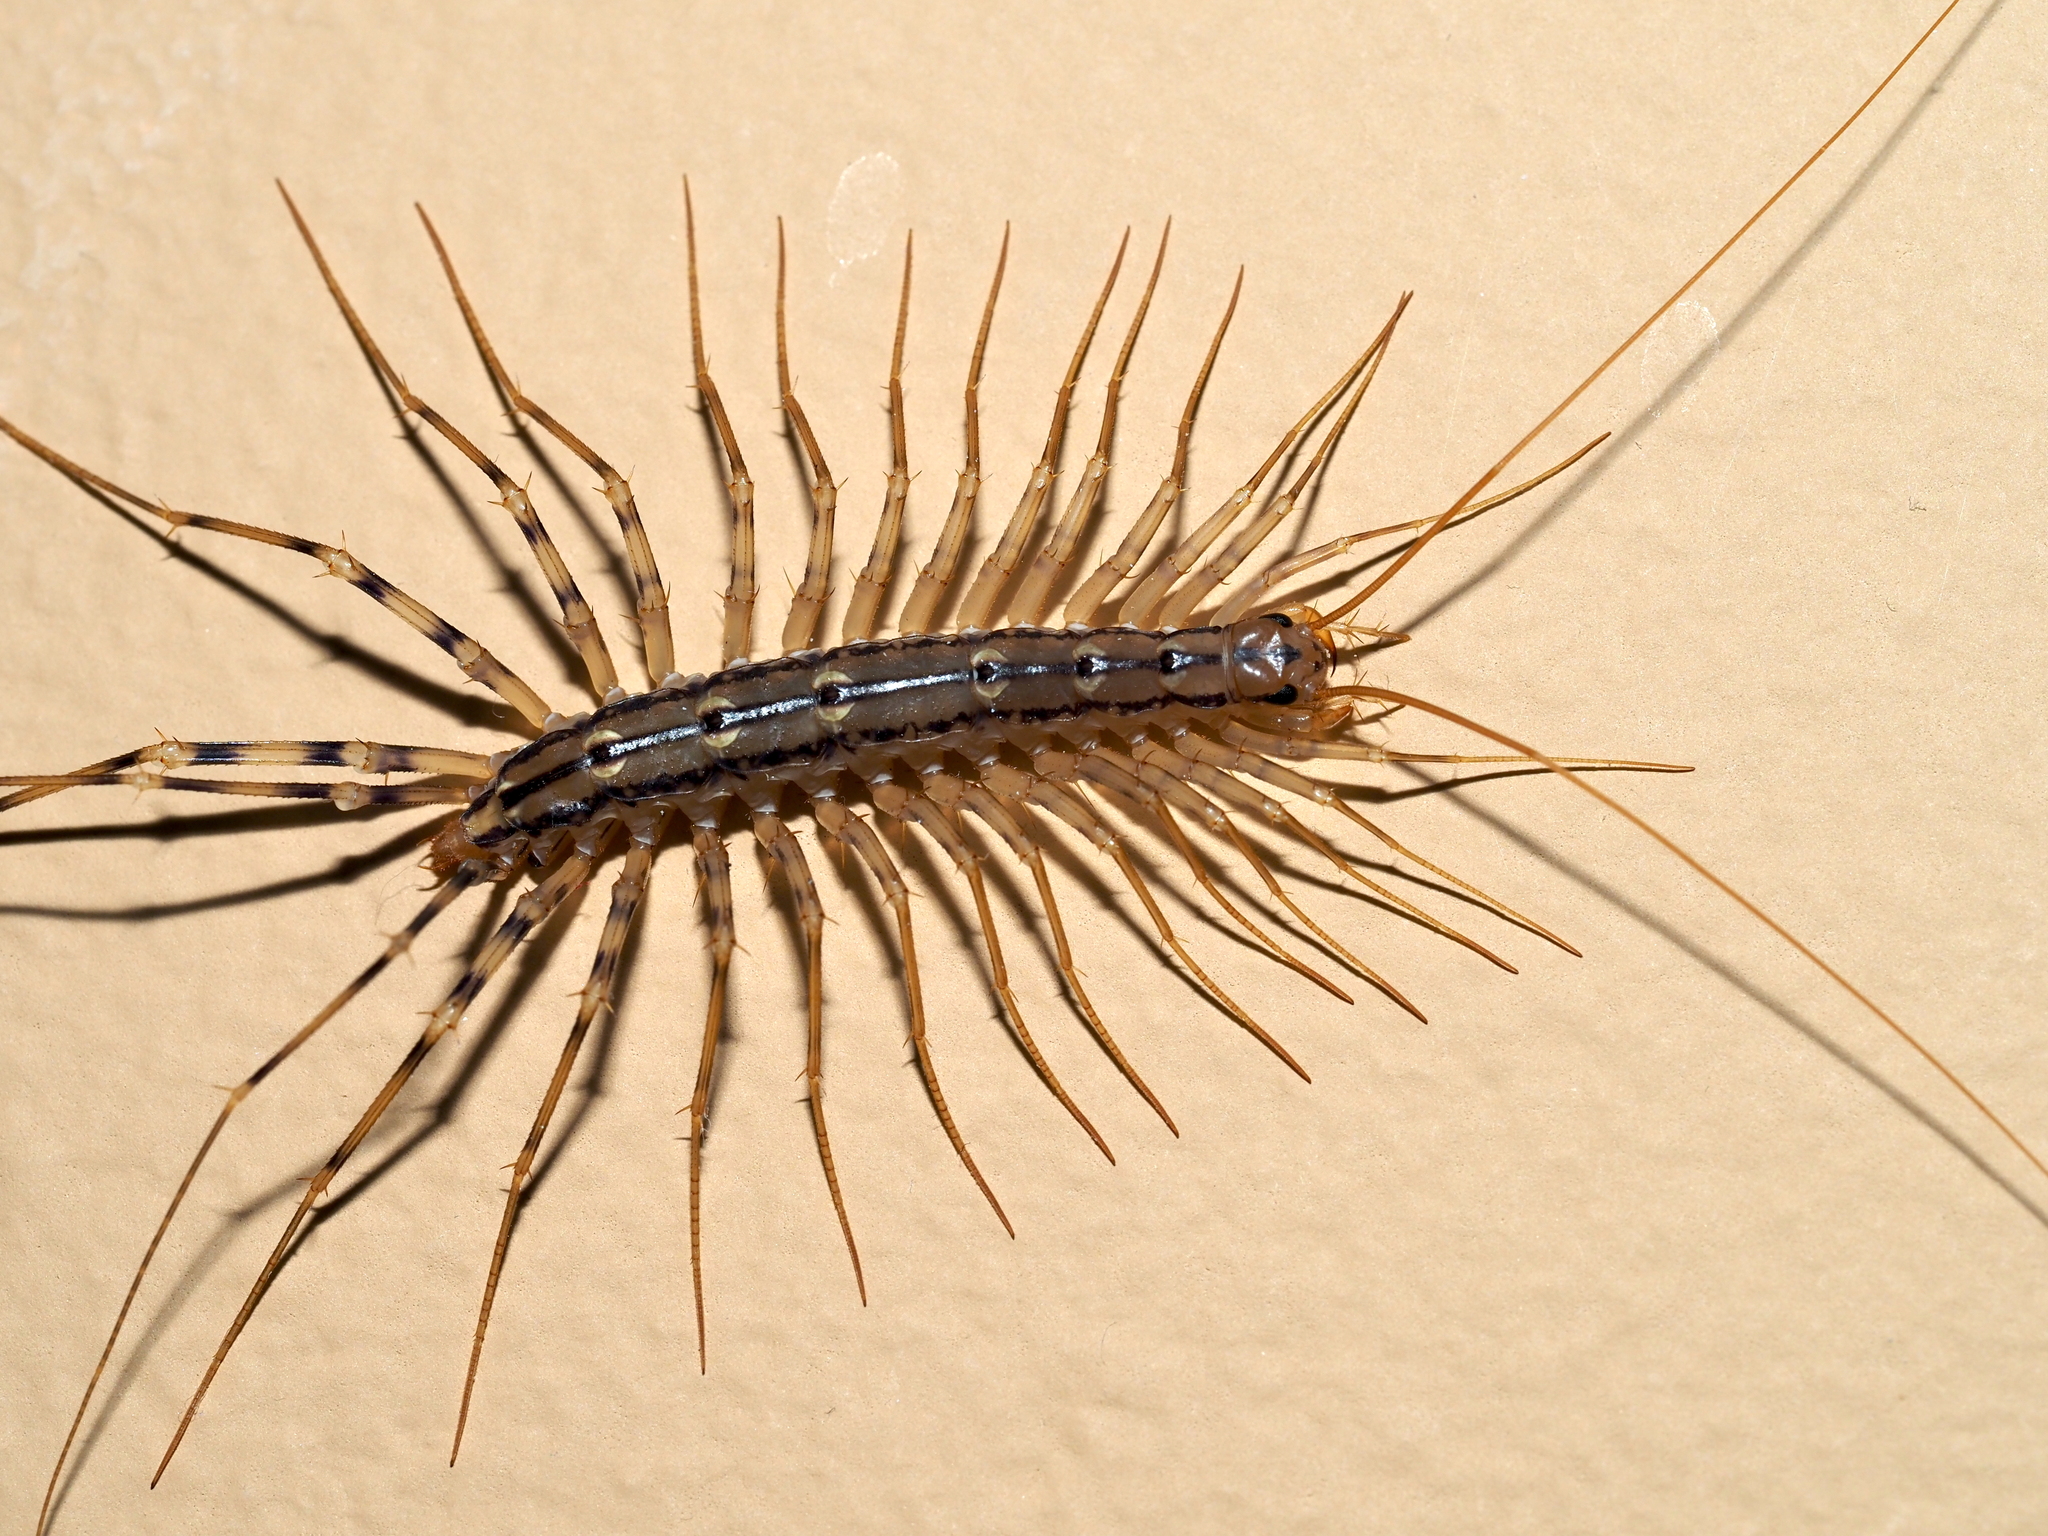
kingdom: Animalia
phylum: Arthropoda
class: Chilopoda
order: Scutigeromorpha
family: Scutigeridae
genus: Scutigera
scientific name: Scutigera coleoptrata
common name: House centipede
